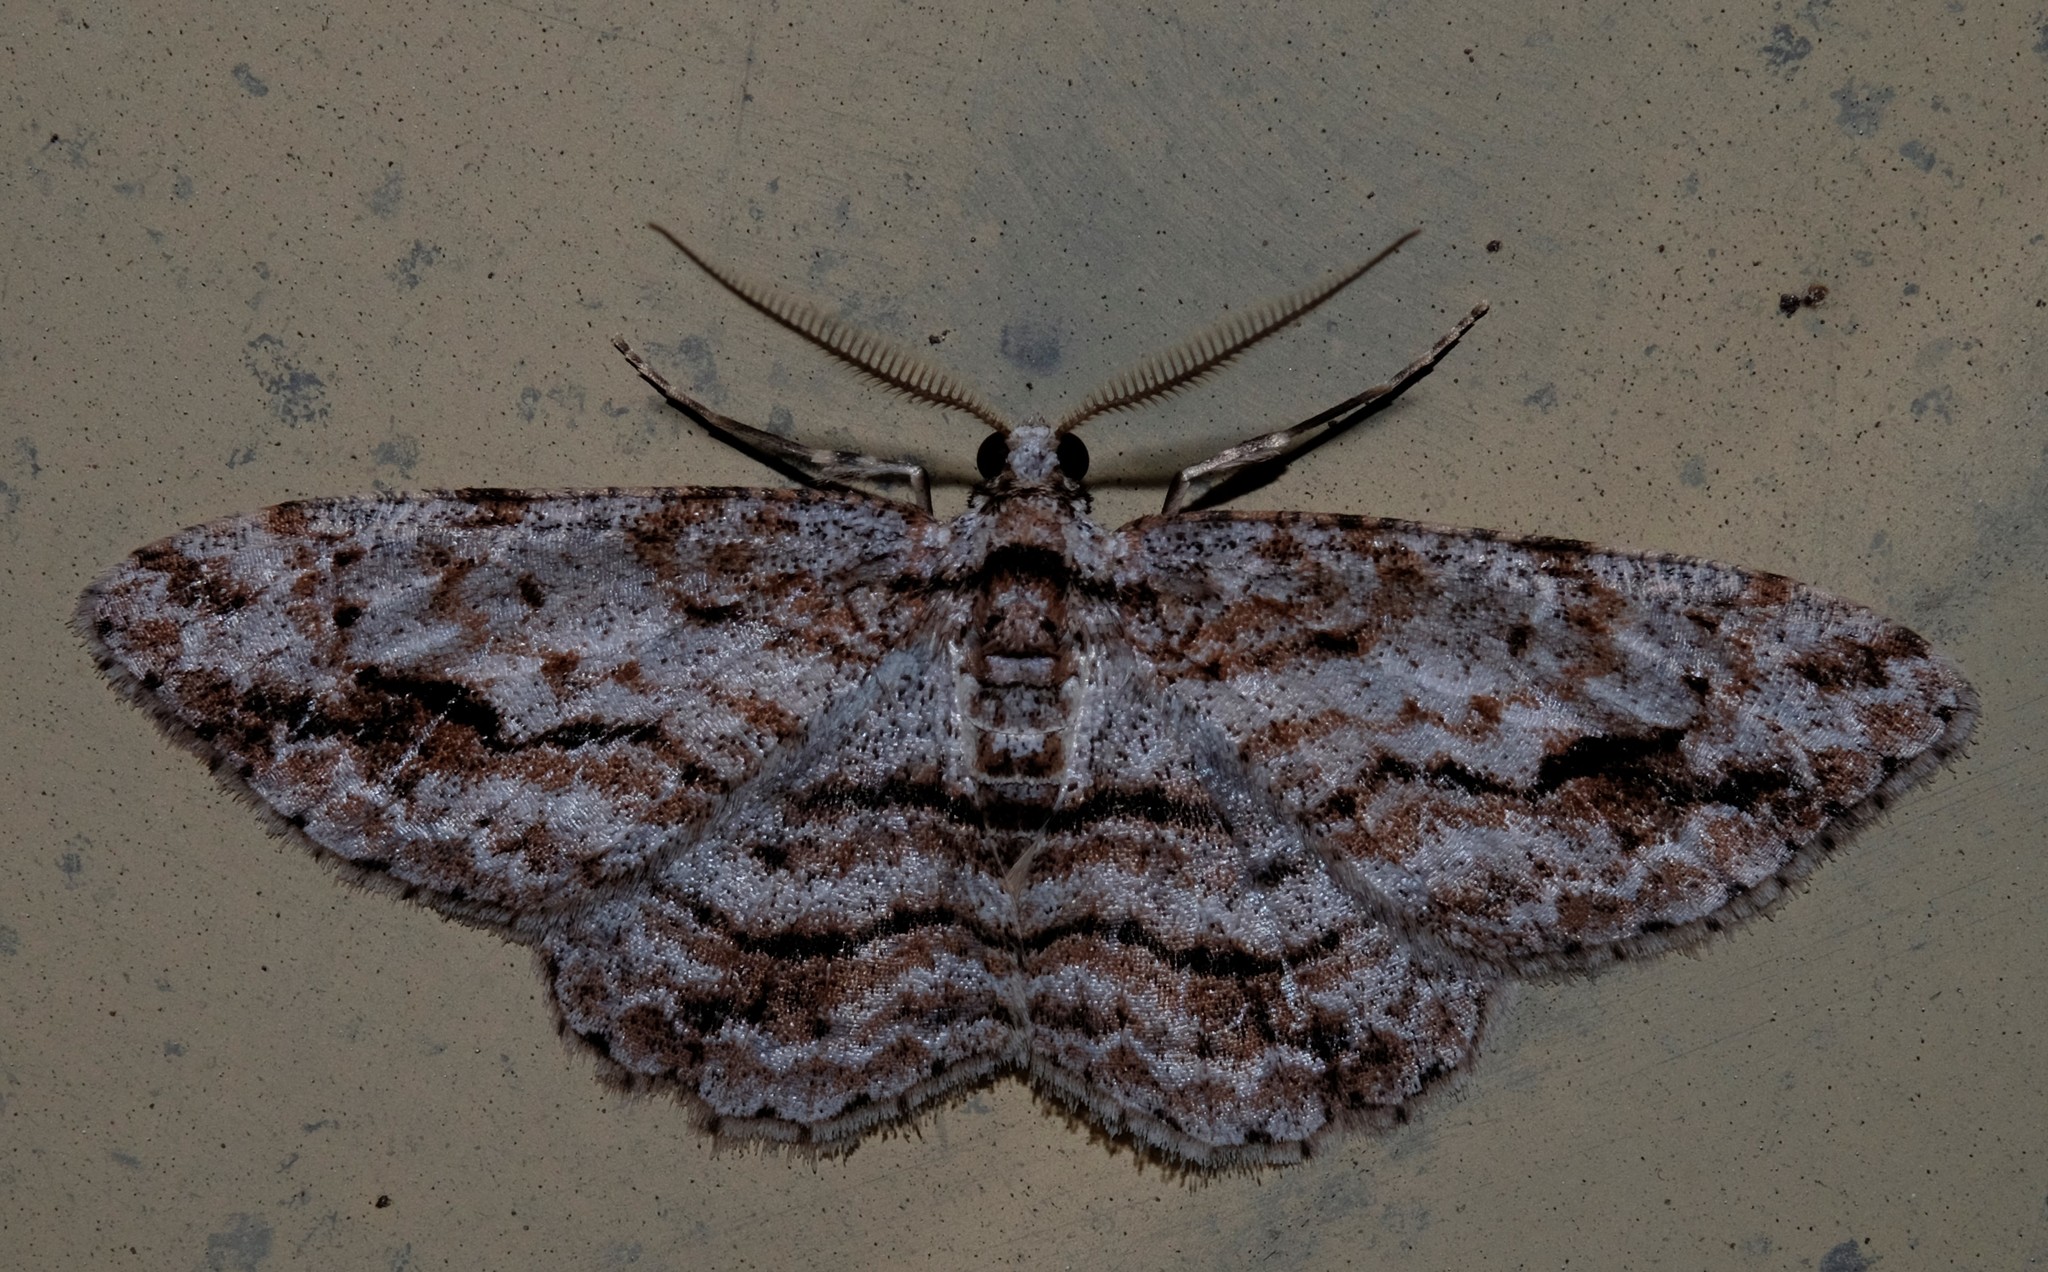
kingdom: Animalia
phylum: Arthropoda
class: Insecta
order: Lepidoptera
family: Geometridae
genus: Didymoctenia
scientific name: Didymoctenia exsuperata
